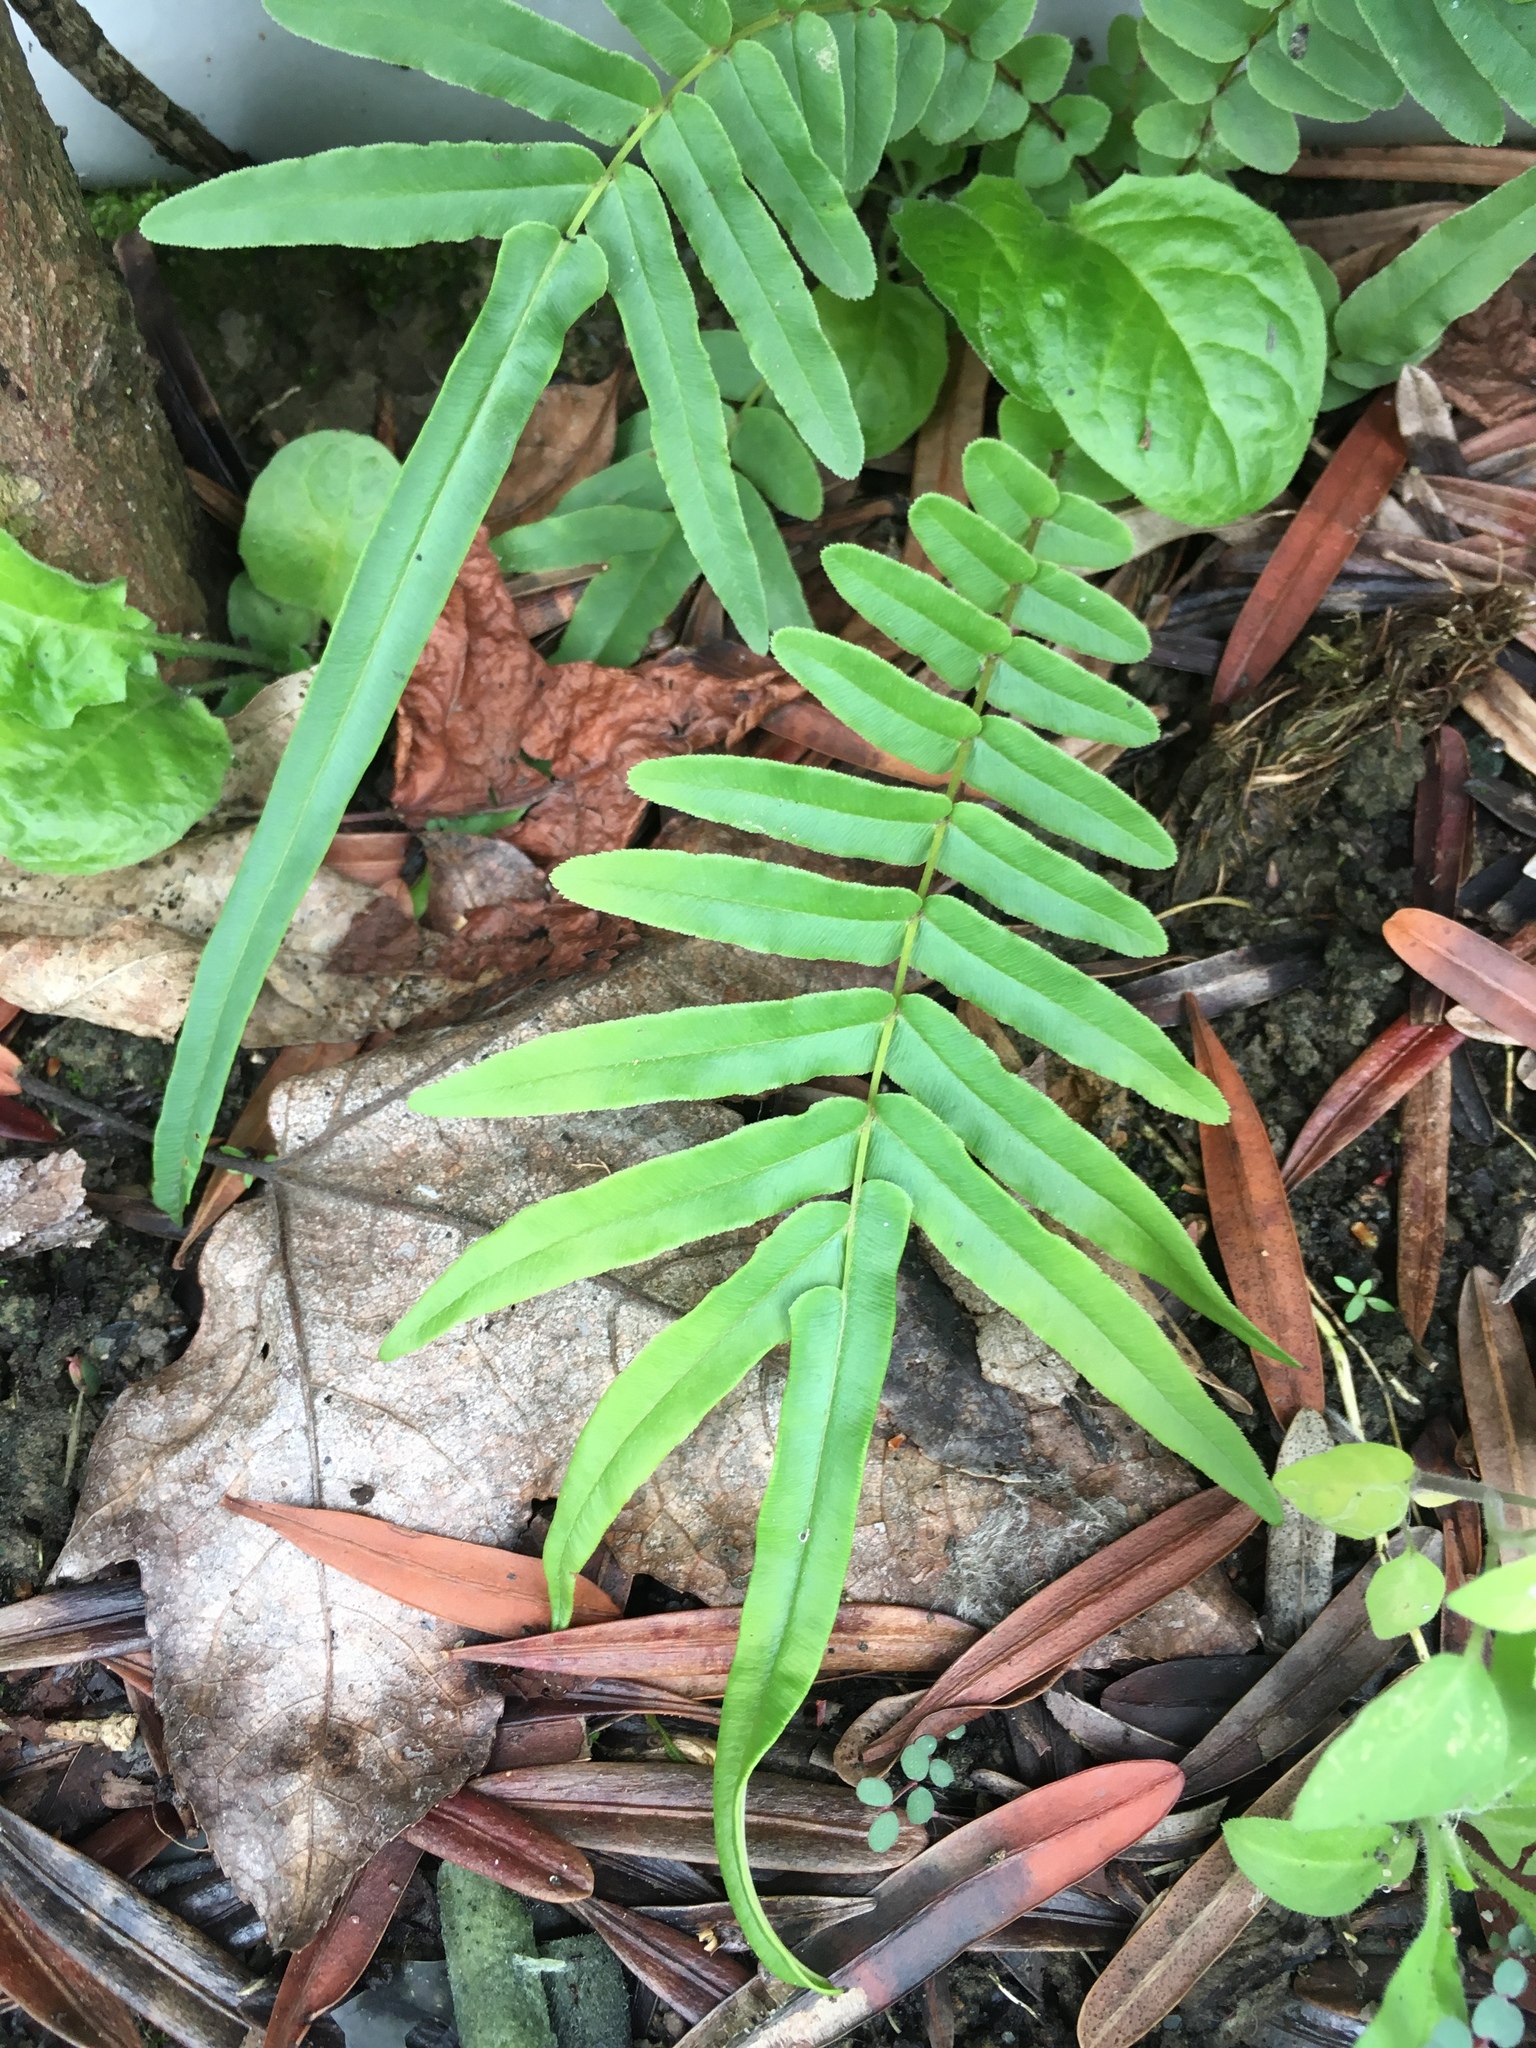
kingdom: Plantae
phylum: Tracheophyta
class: Polypodiopsida
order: Polypodiales
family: Pteridaceae
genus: Pteris
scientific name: Pteris vittata
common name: Ladder brake
